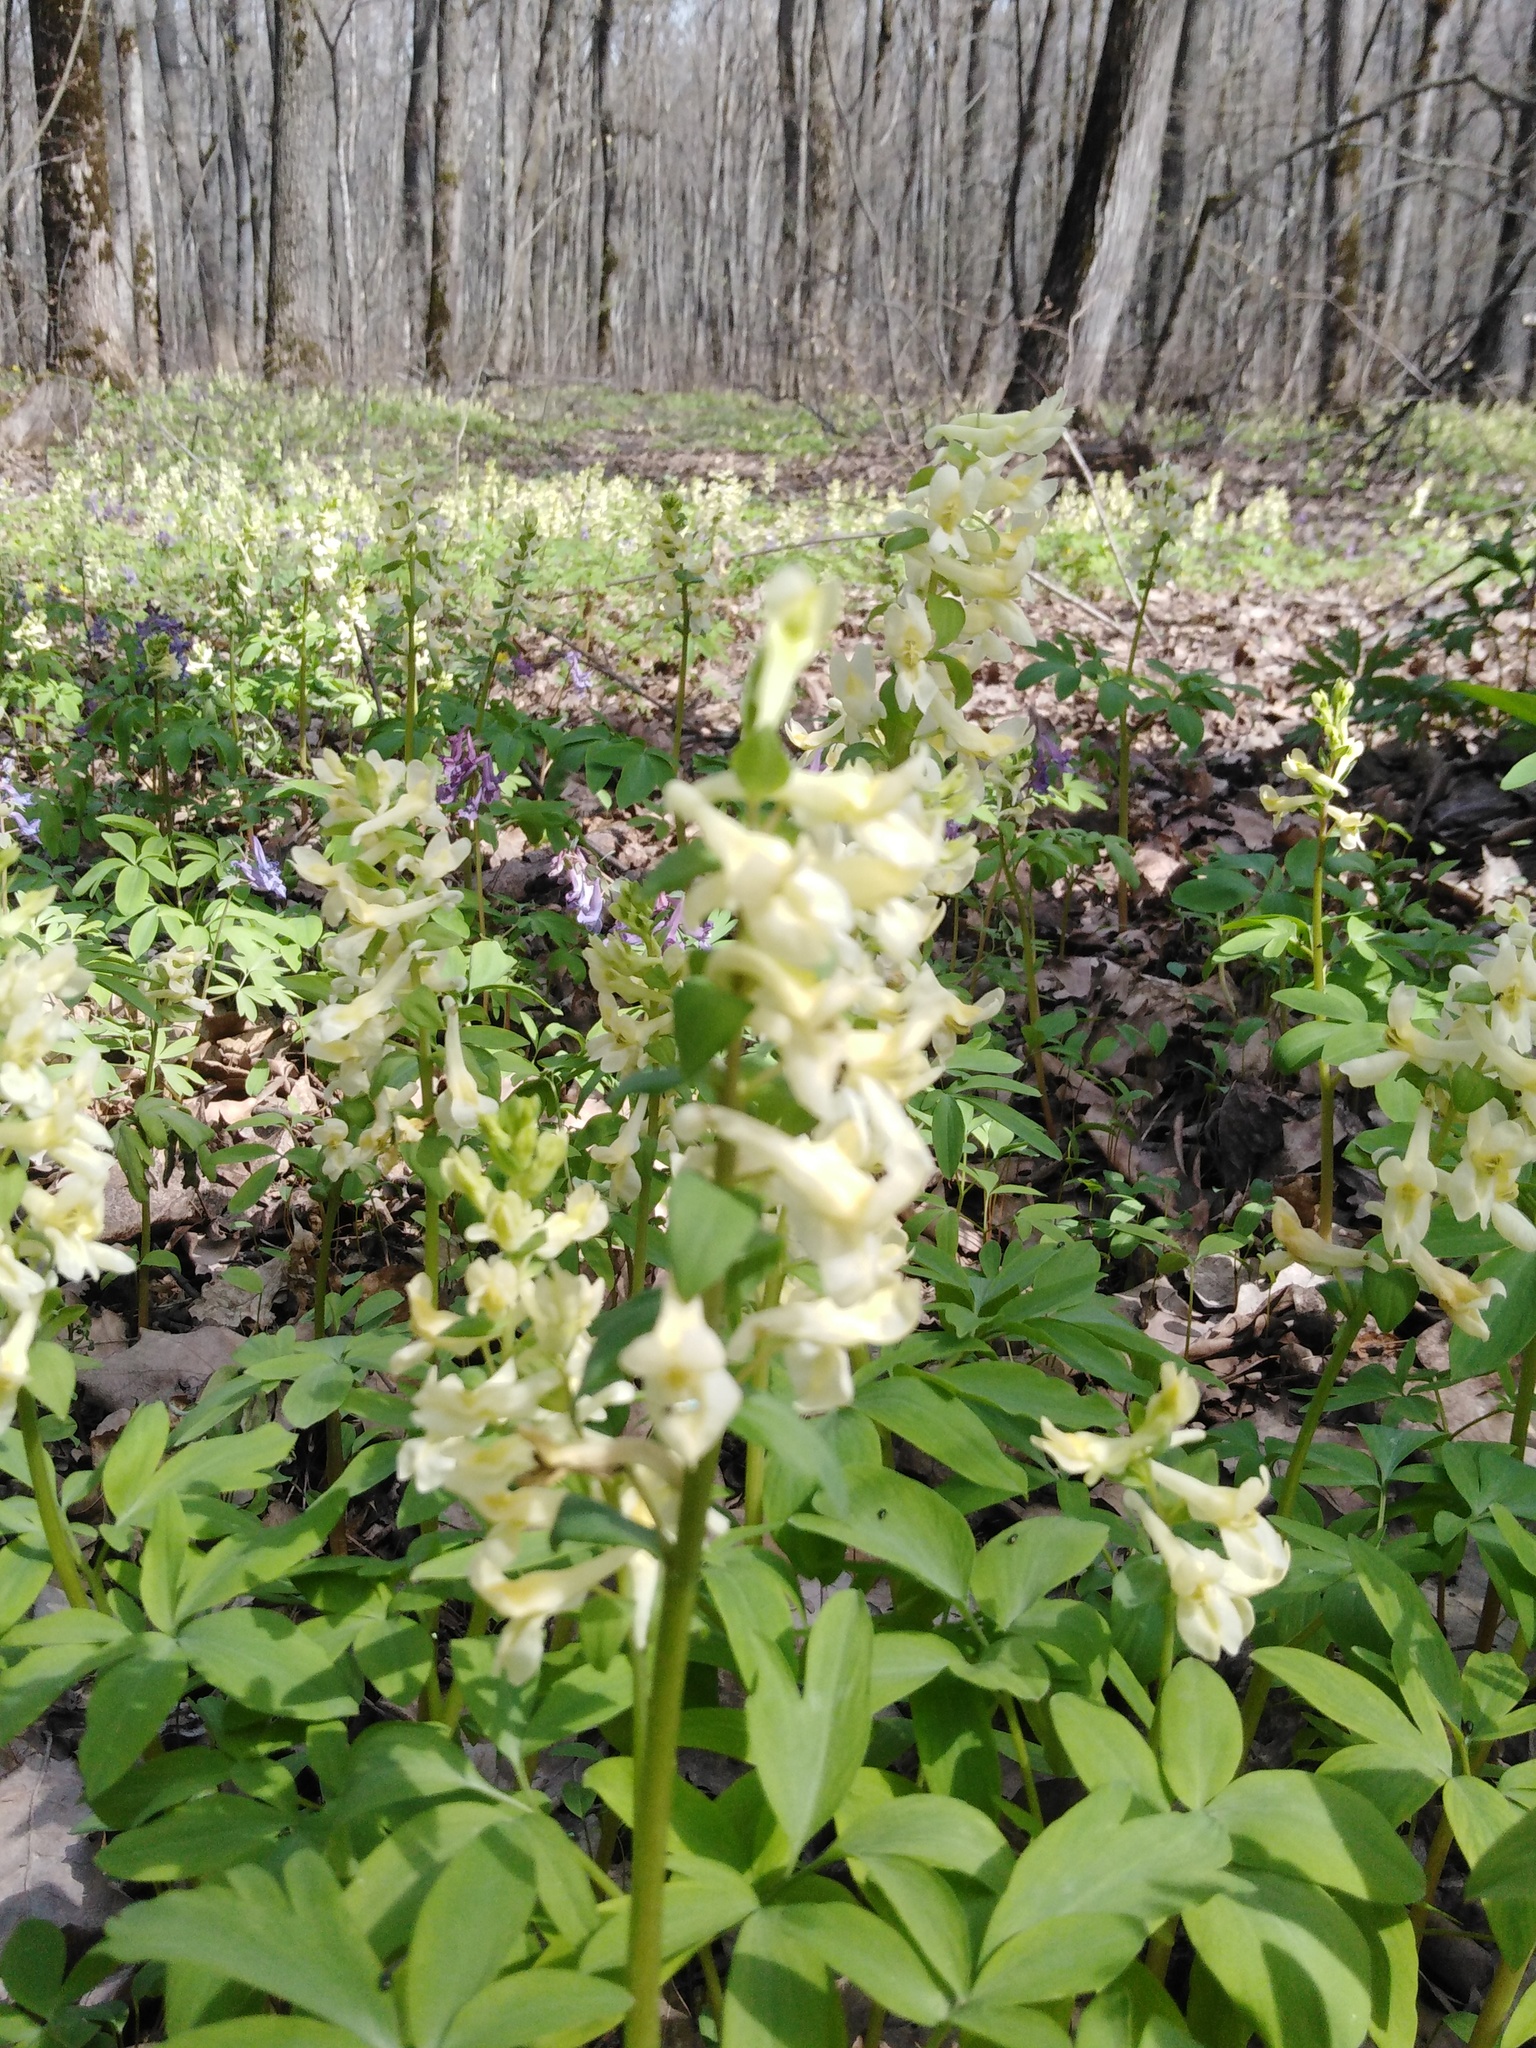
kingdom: Plantae
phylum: Tracheophyta
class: Magnoliopsida
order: Ranunculales
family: Papaveraceae
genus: Corydalis
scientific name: Corydalis cava
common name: Hollowroot
